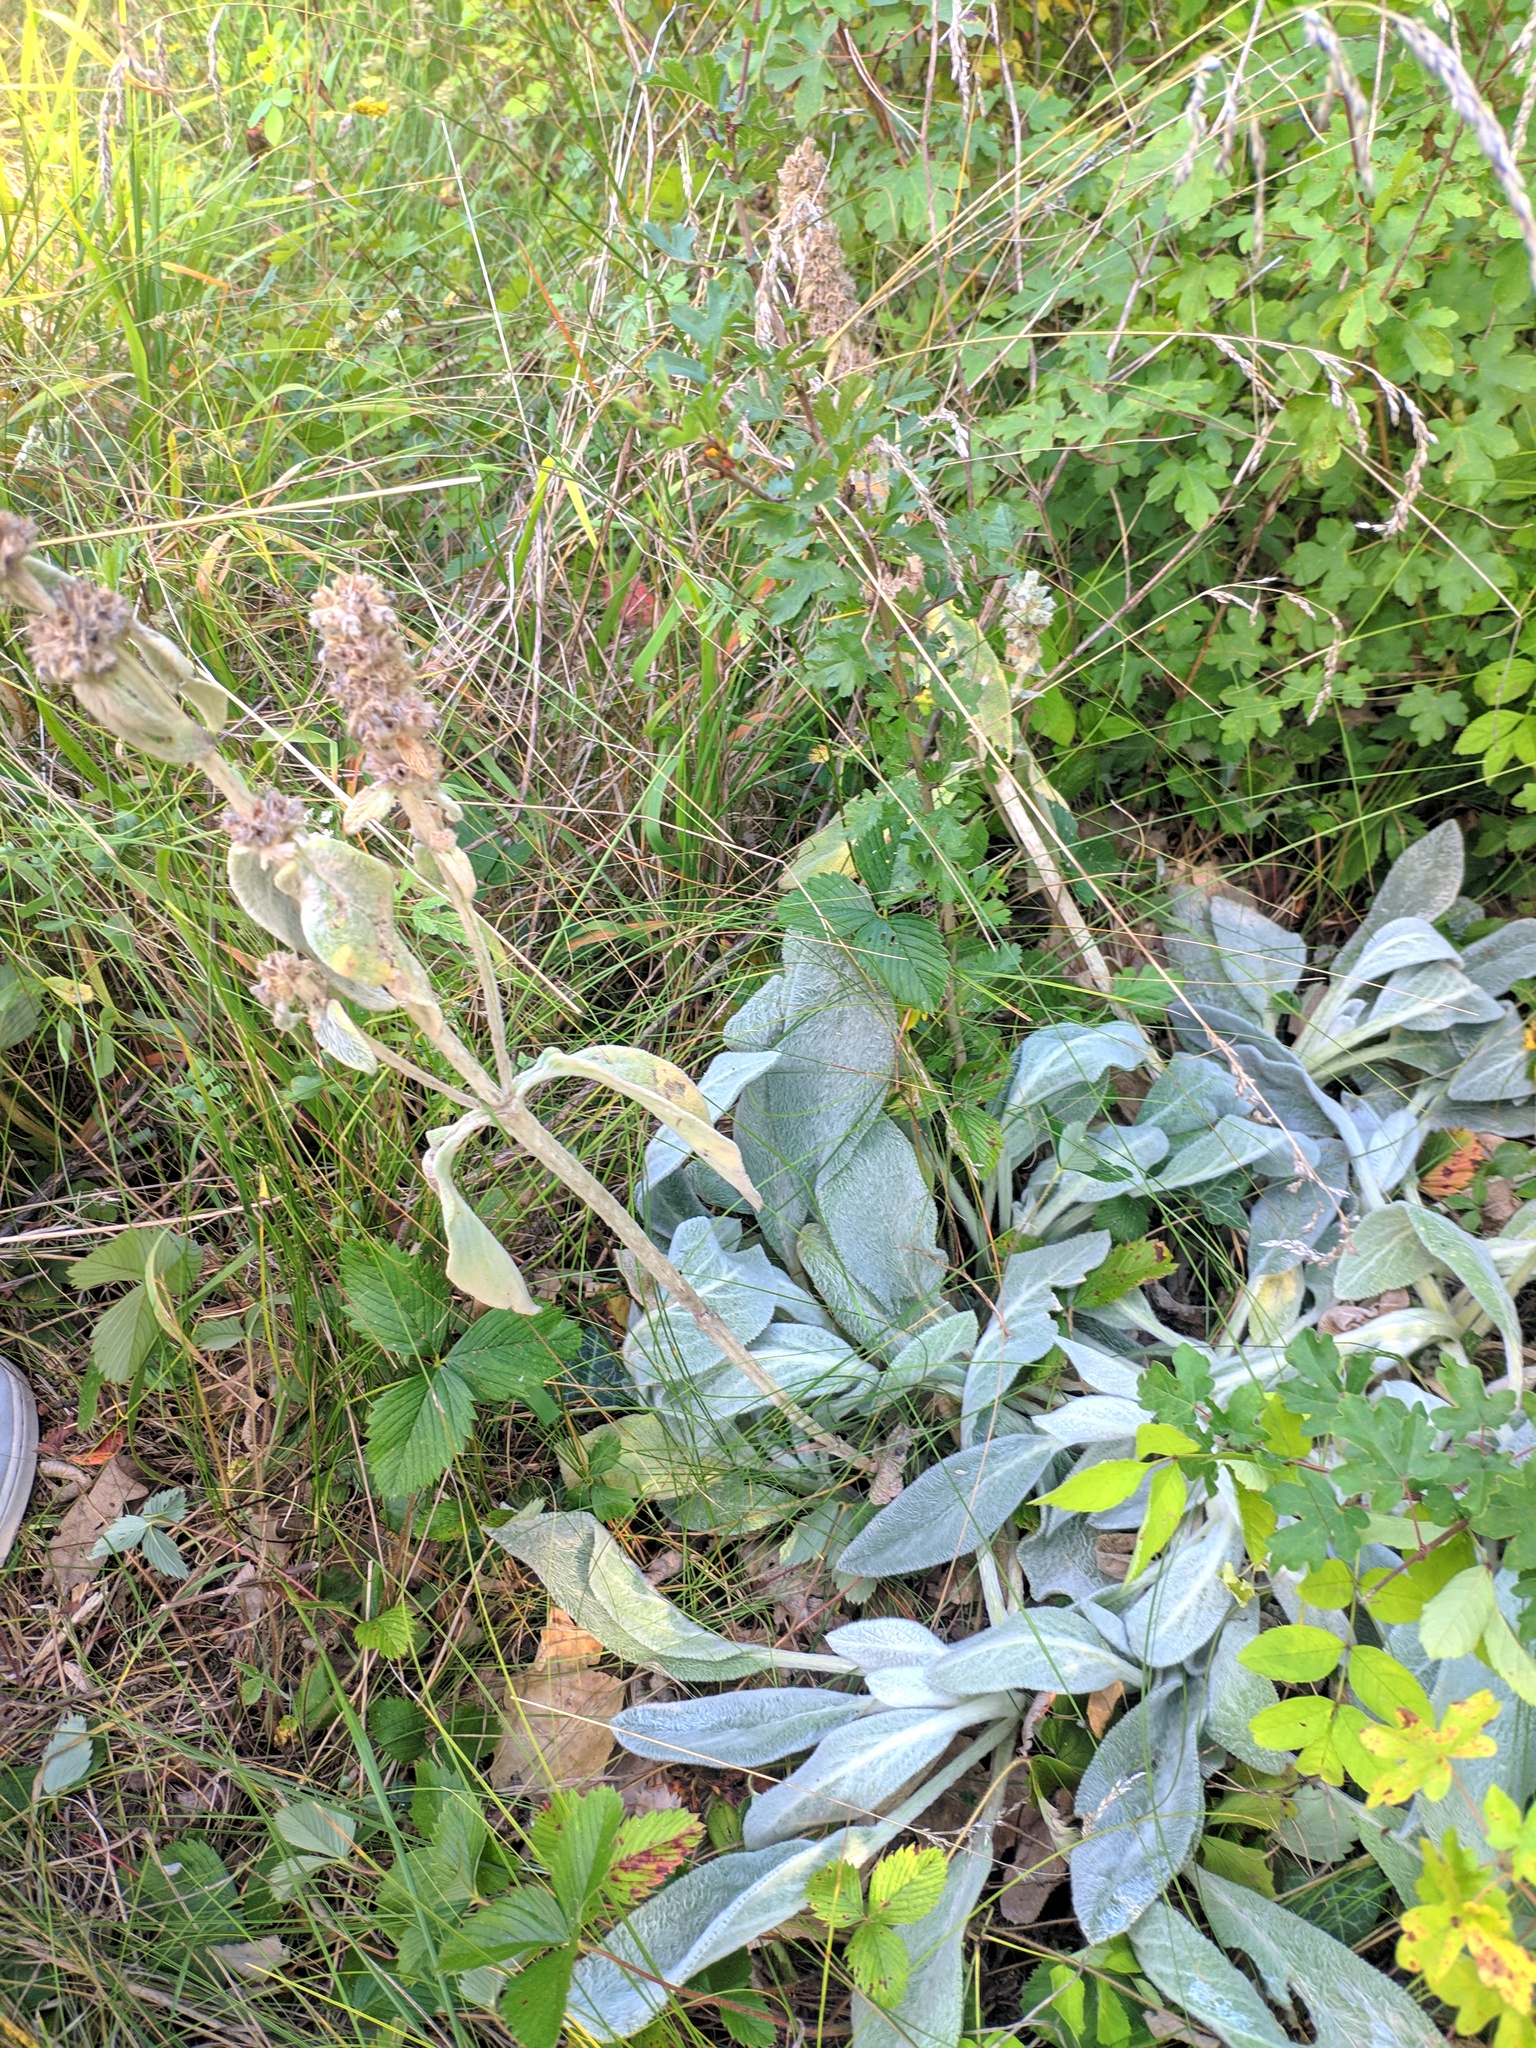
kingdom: Plantae
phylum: Tracheophyta
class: Magnoliopsida
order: Lamiales
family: Lamiaceae
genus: Stachys
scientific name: Stachys byzantina
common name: Lamb's-ear
